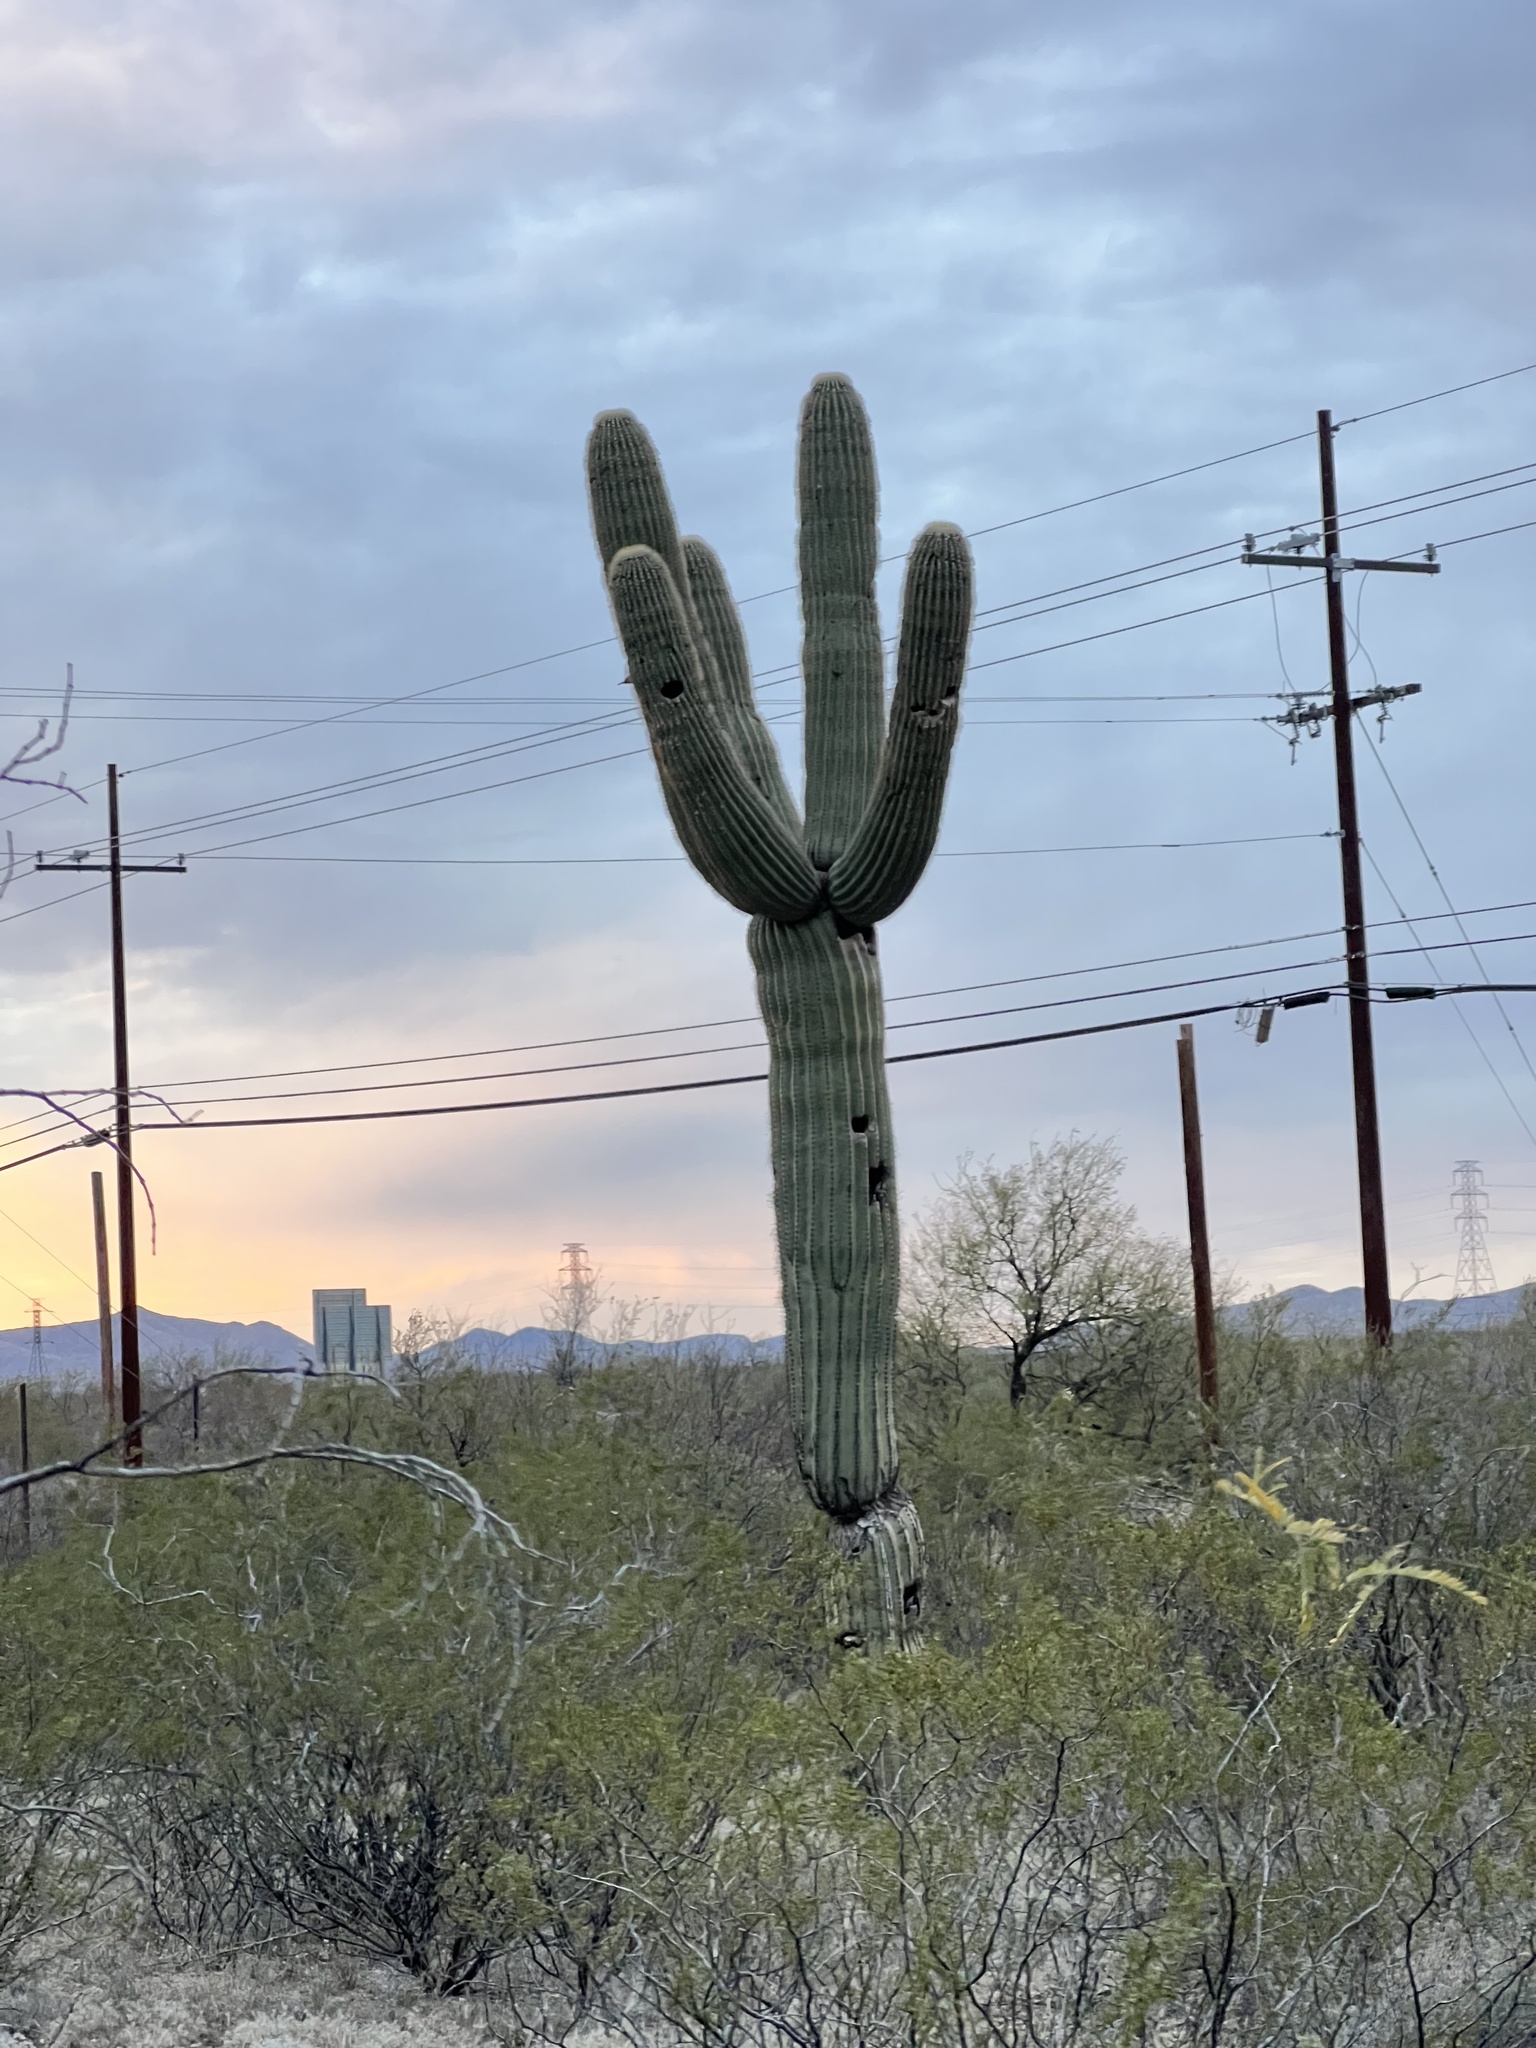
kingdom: Plantae
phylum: Tracheophyta
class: Magnoliopsida
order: Caryophyllales
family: Cactaceae
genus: Carnegiea
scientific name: Carnegiea gigantea
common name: Saguaro
